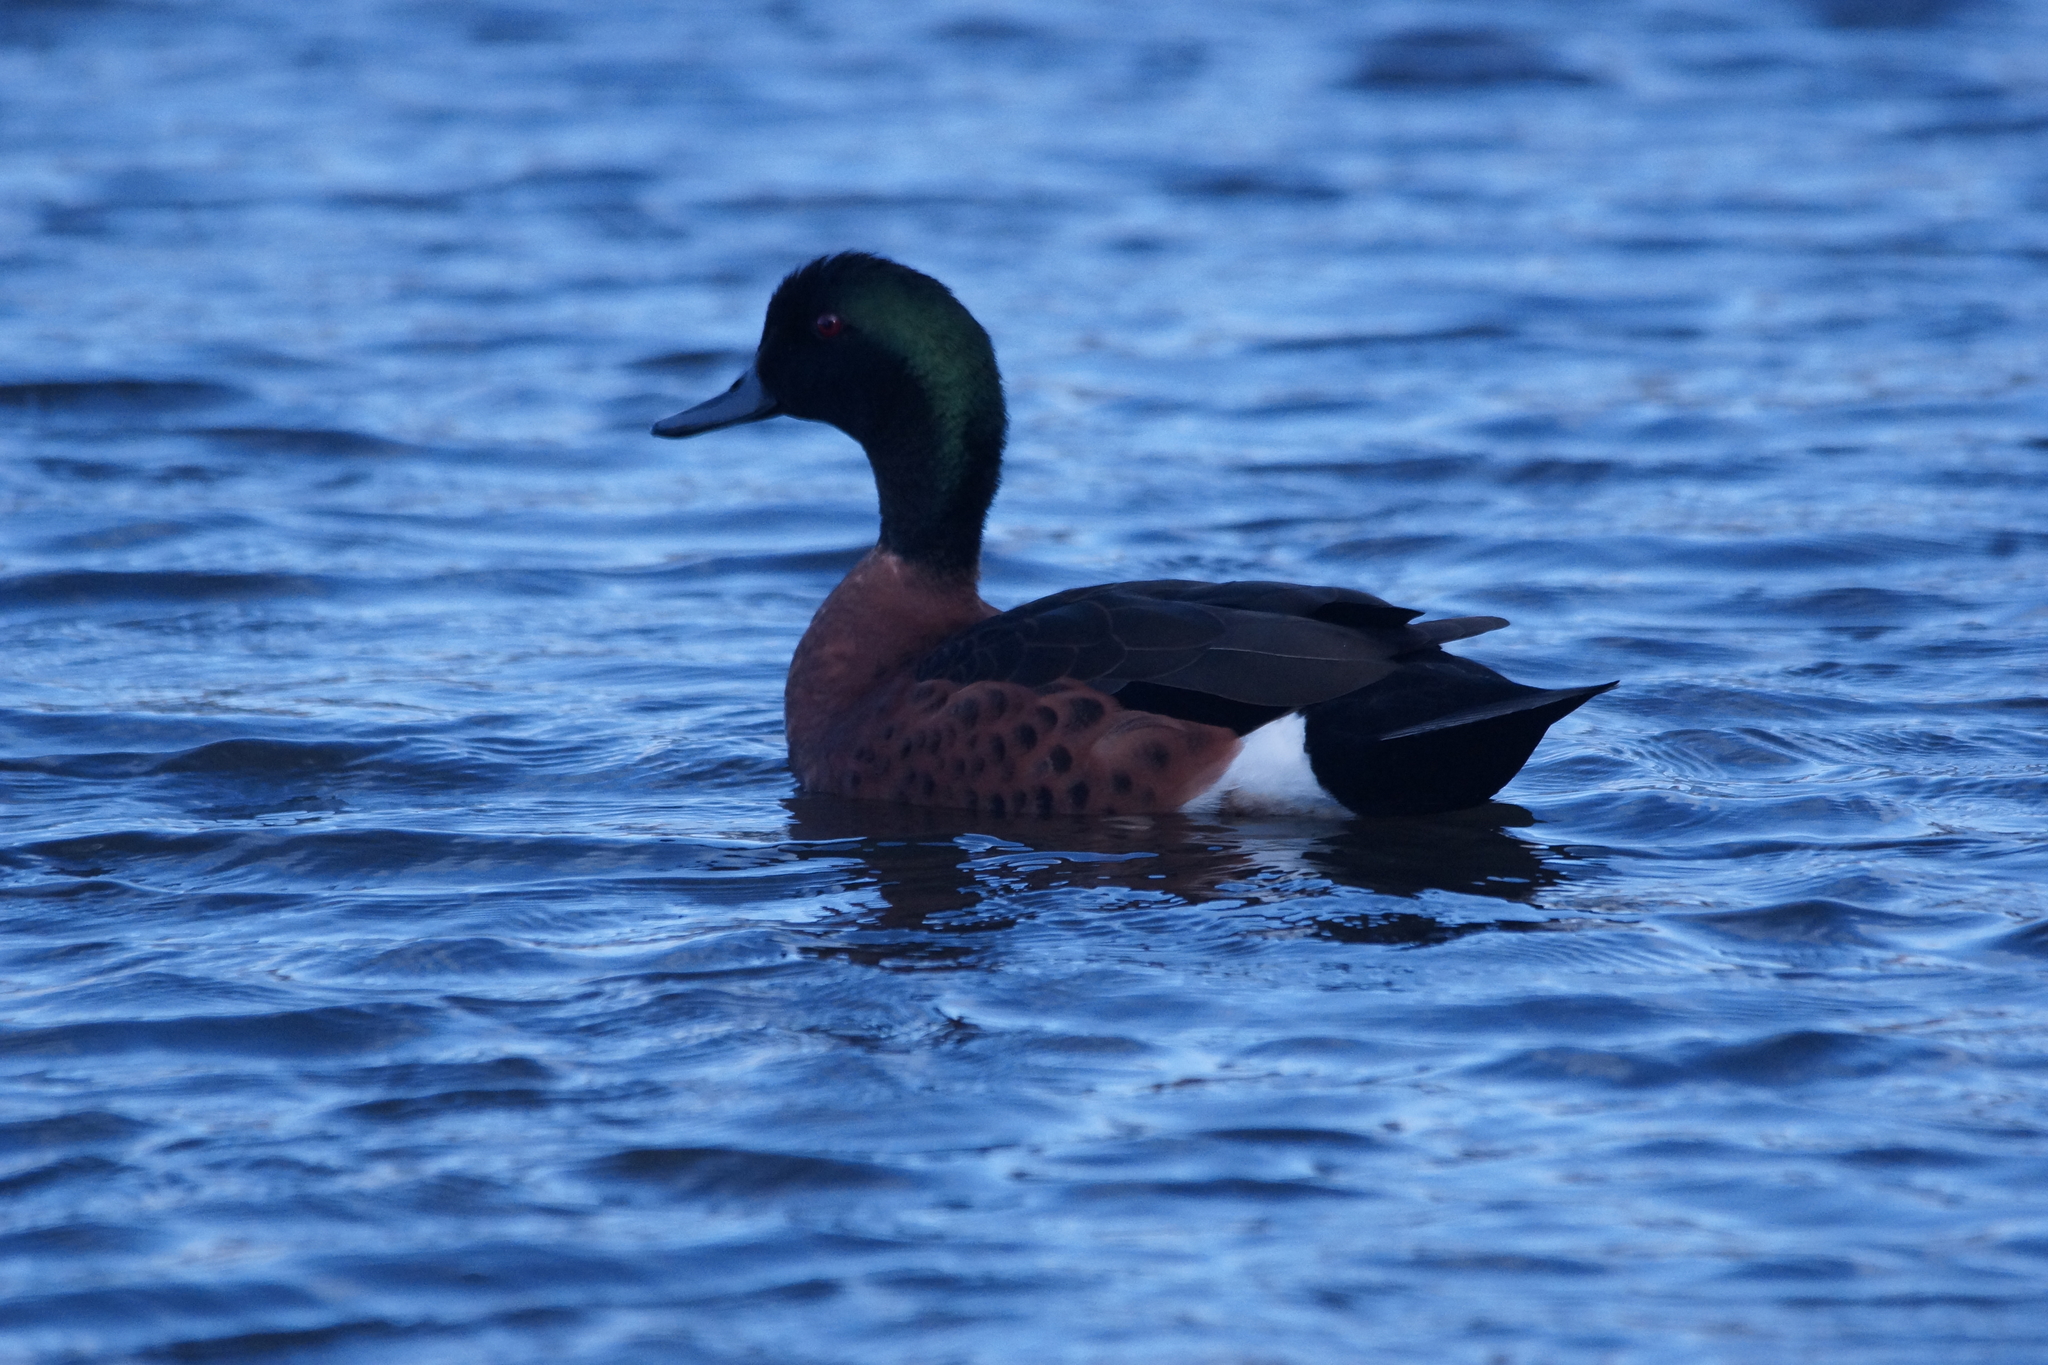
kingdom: Animalia
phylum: Chordata
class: Aves
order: Anseriformes
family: Anatidae
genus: Anas
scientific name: Anas castanea
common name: Chestnut teal
